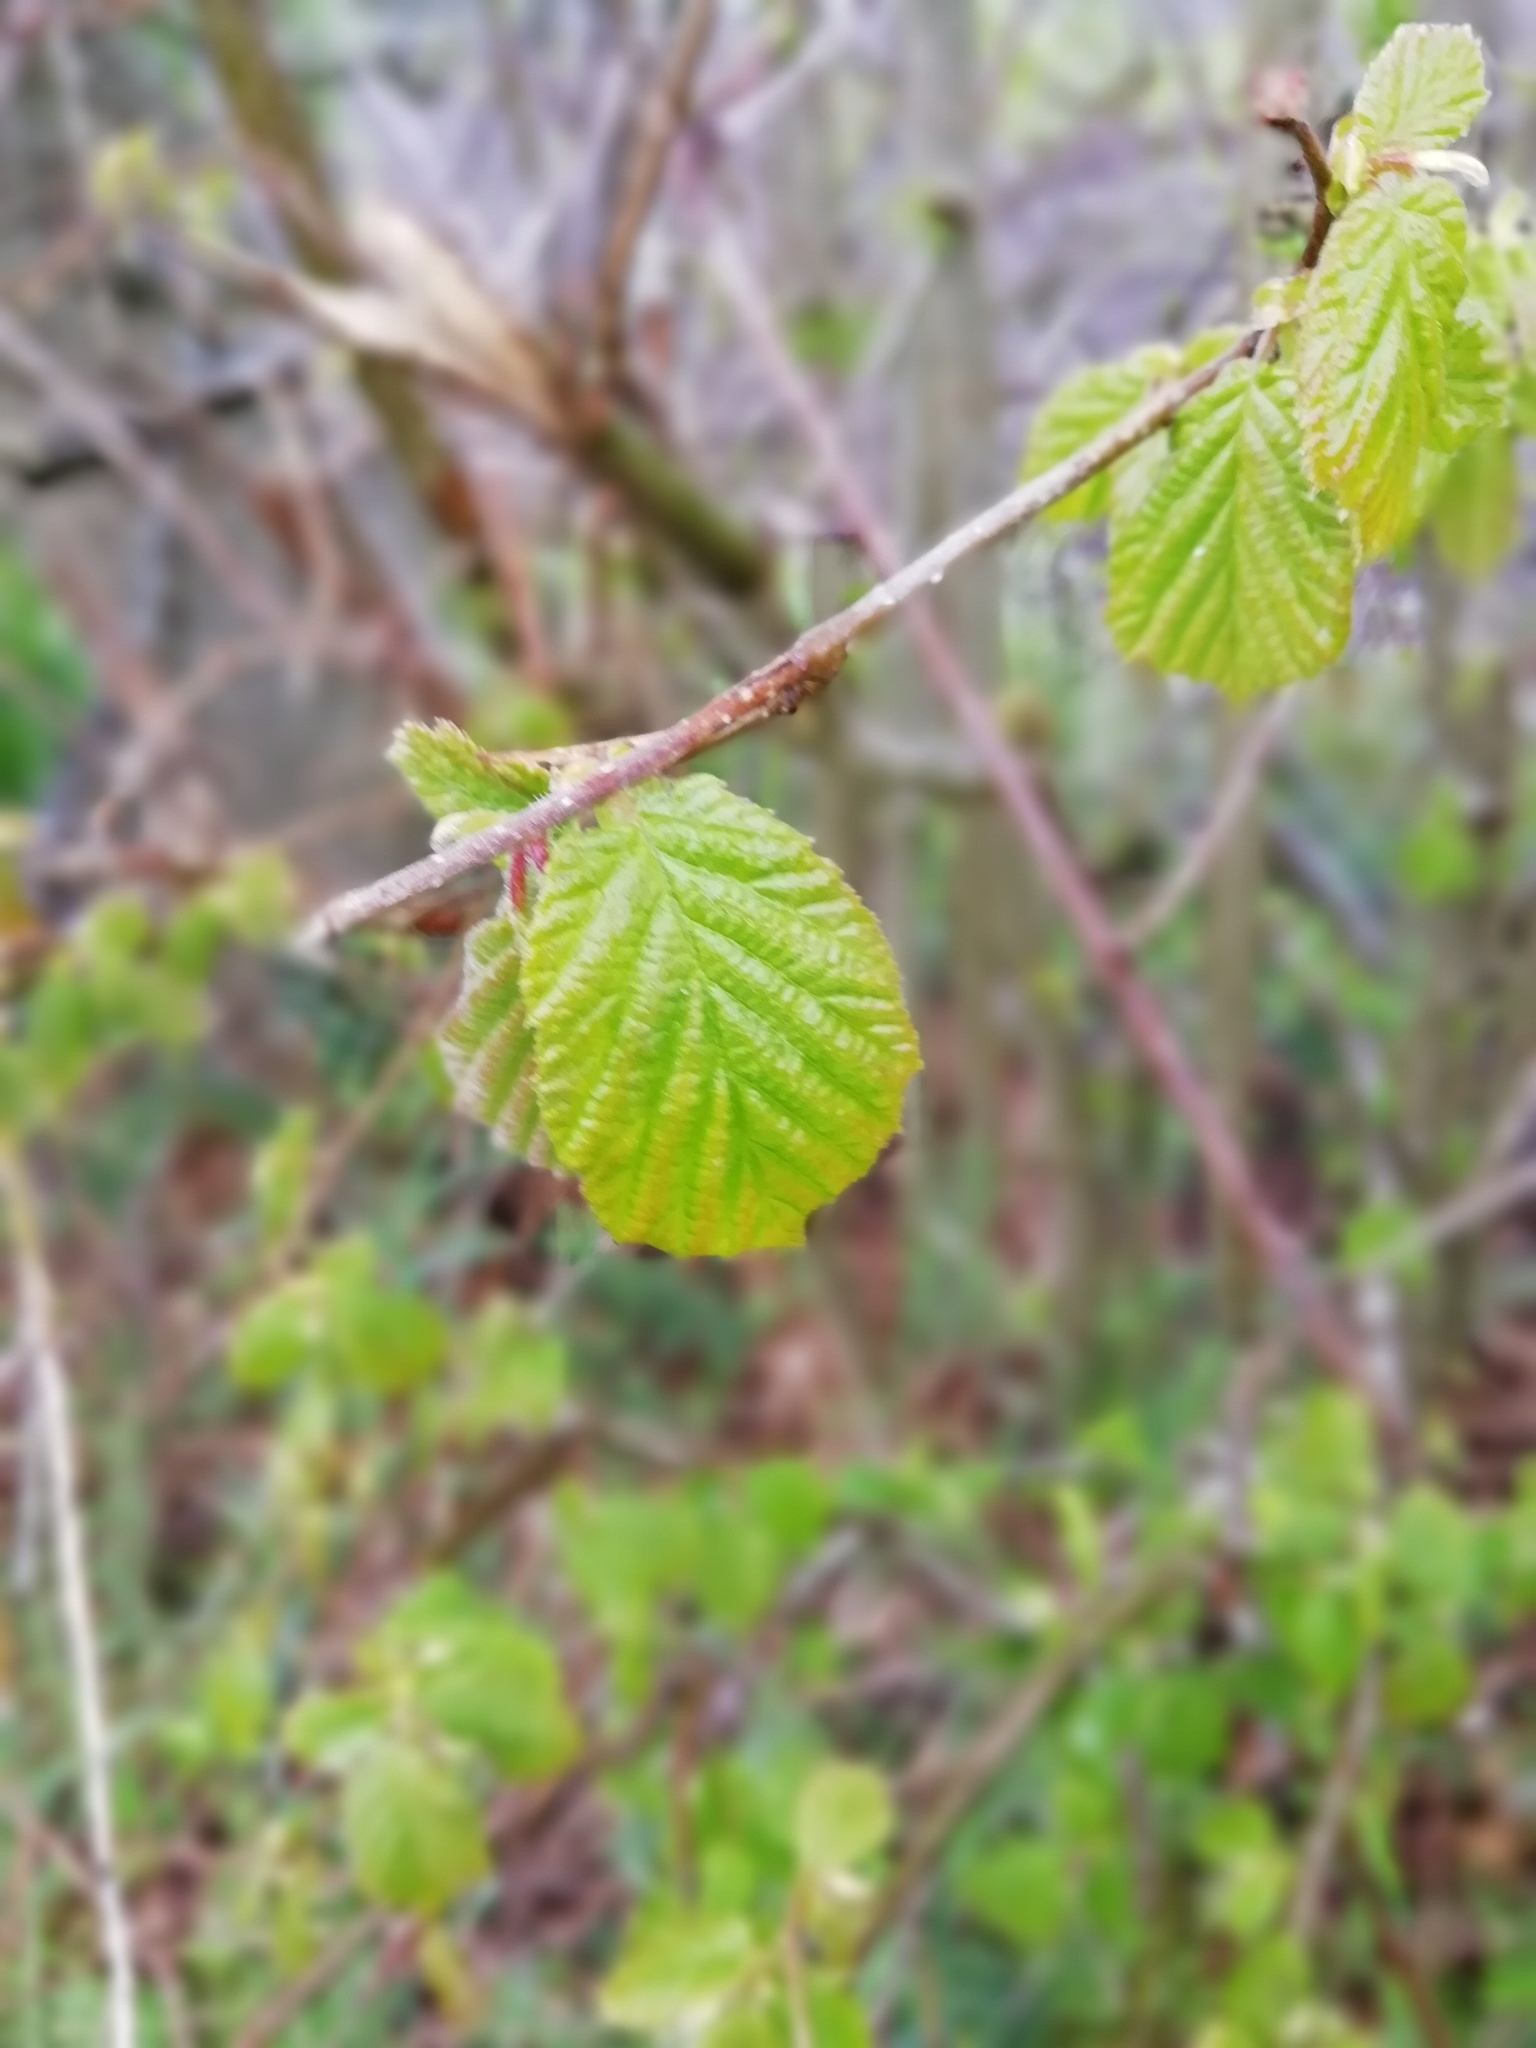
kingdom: Plantae
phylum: Tracheophyta
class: Magnoliopsida
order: Fagales
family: Betulaceae
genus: Corylus
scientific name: Corylus avellana
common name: European hazel
